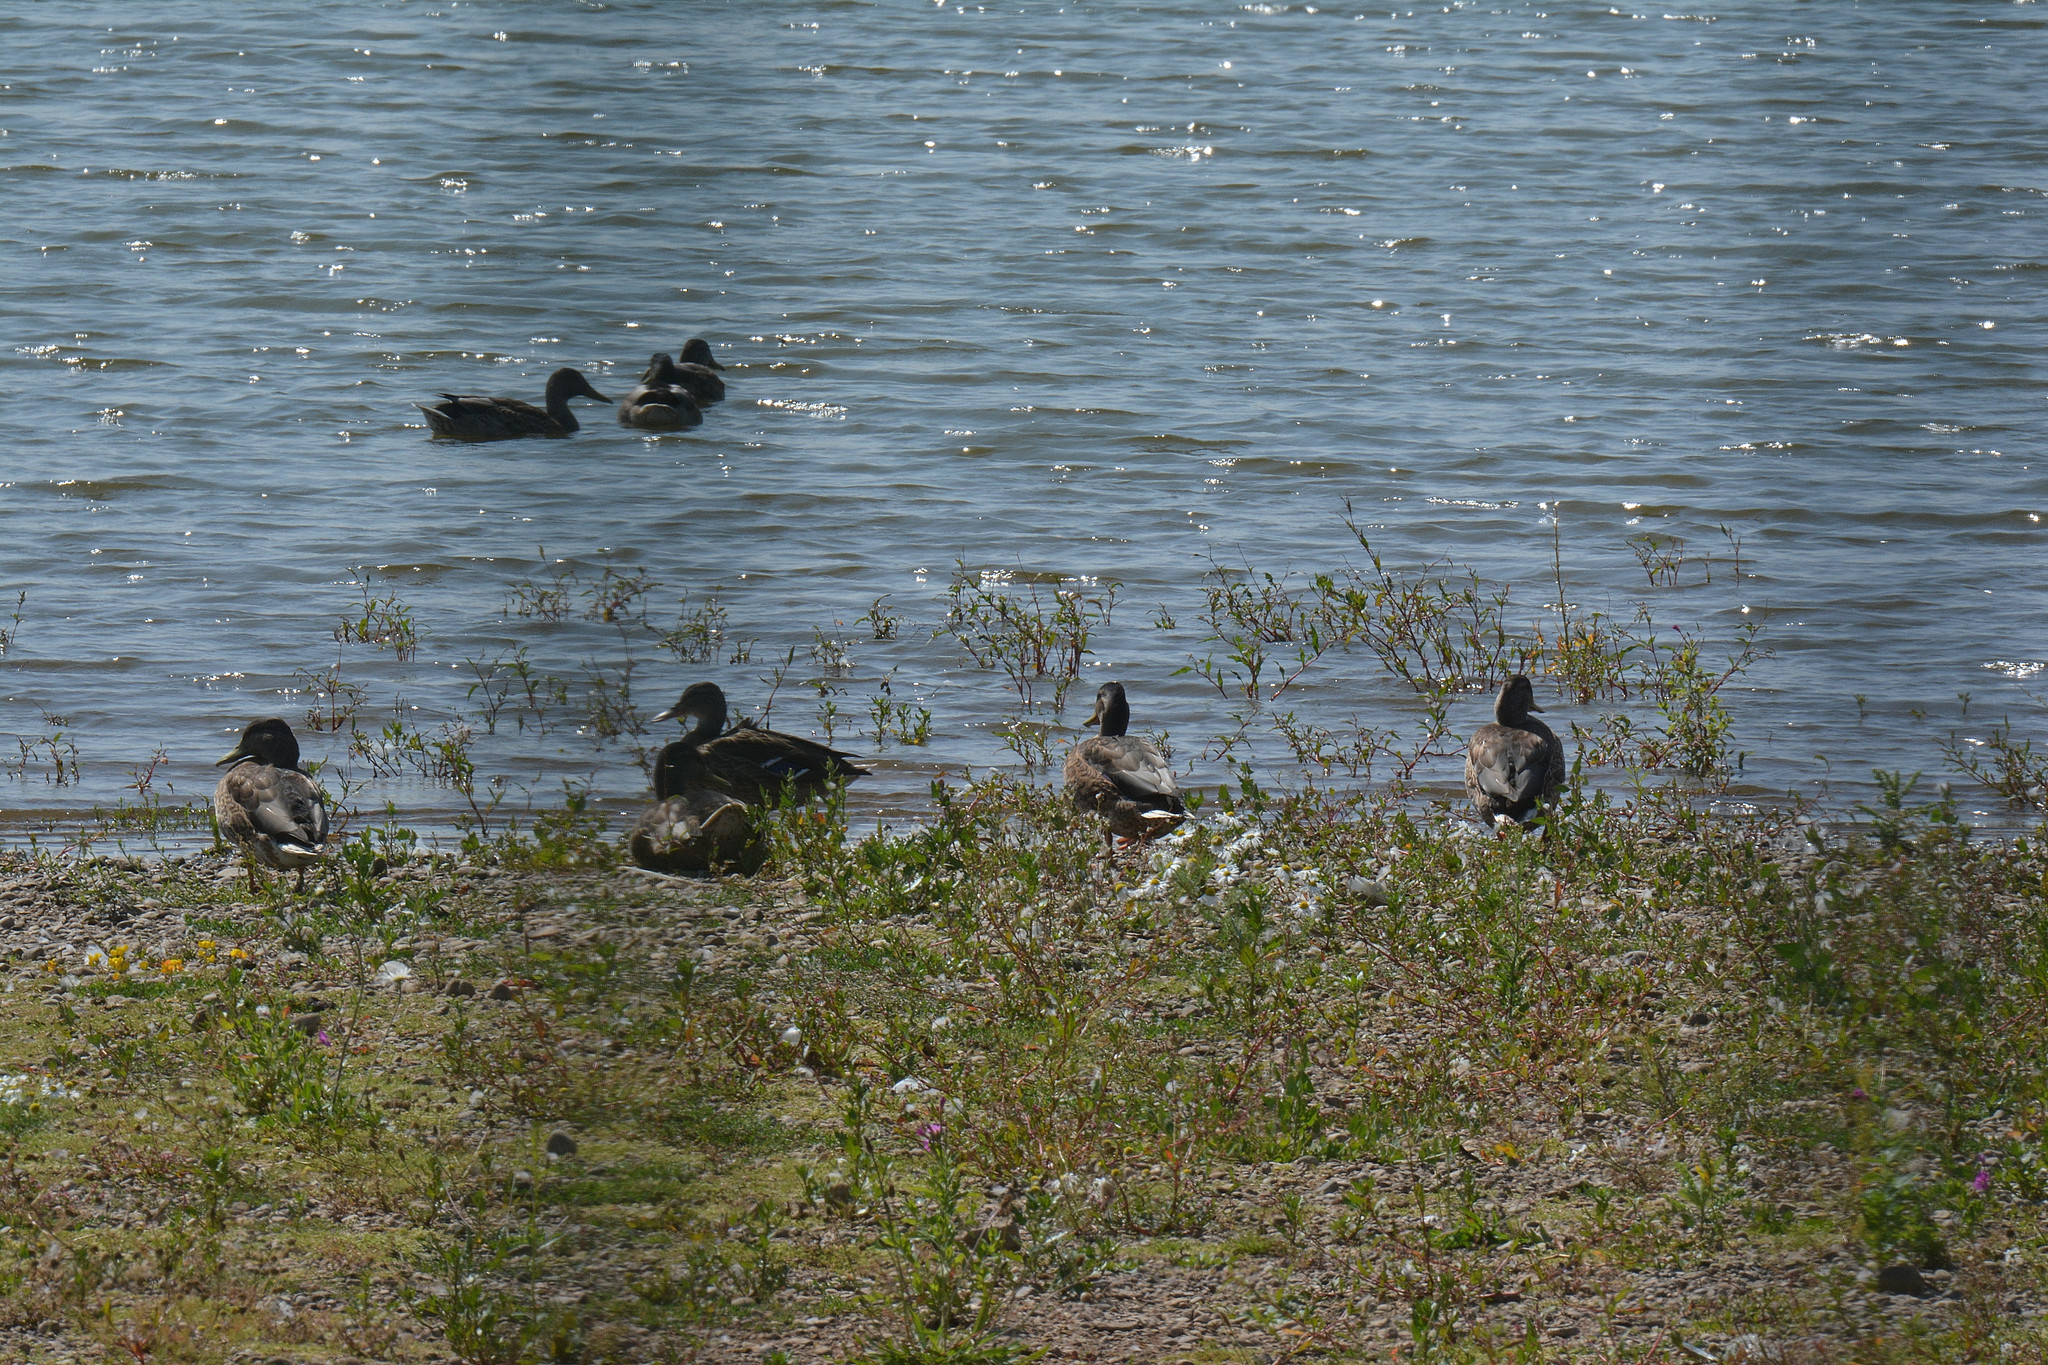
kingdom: Animalia
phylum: Chordata
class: Aves
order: Anseriformes
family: Anatidae
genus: Anas
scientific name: Anas platyrhynchos
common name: Mallard
